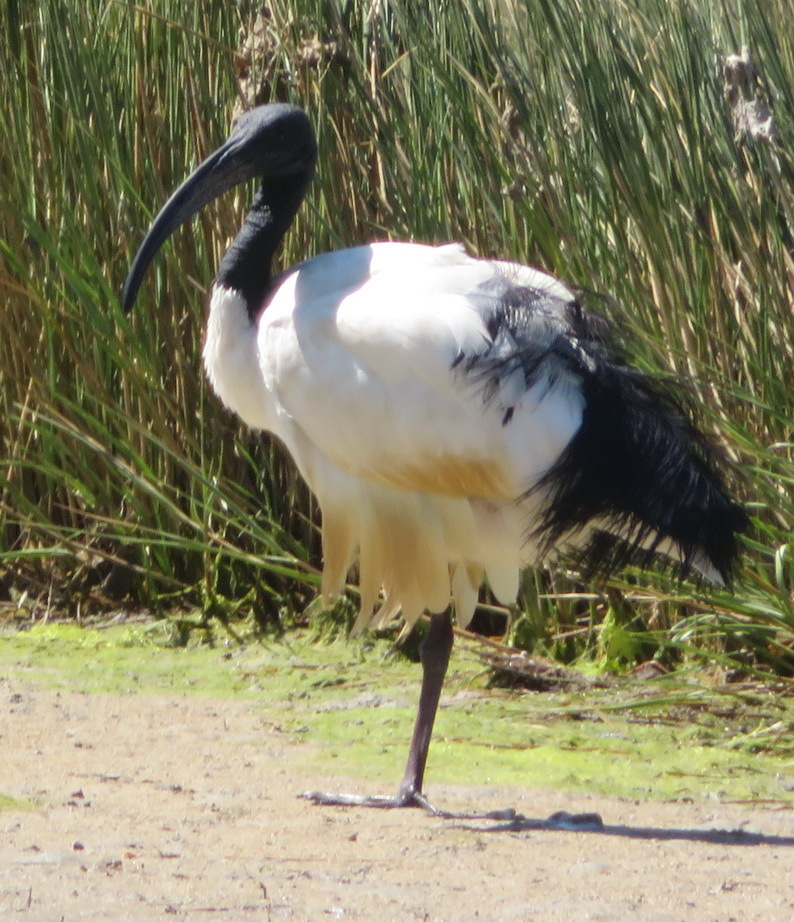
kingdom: Animalia
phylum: Chordata
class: Aves
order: Pelecaniformes
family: Threskiornithidae
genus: Threskiornis
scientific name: Threskiornis aethiopicus
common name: Sacred ibis
